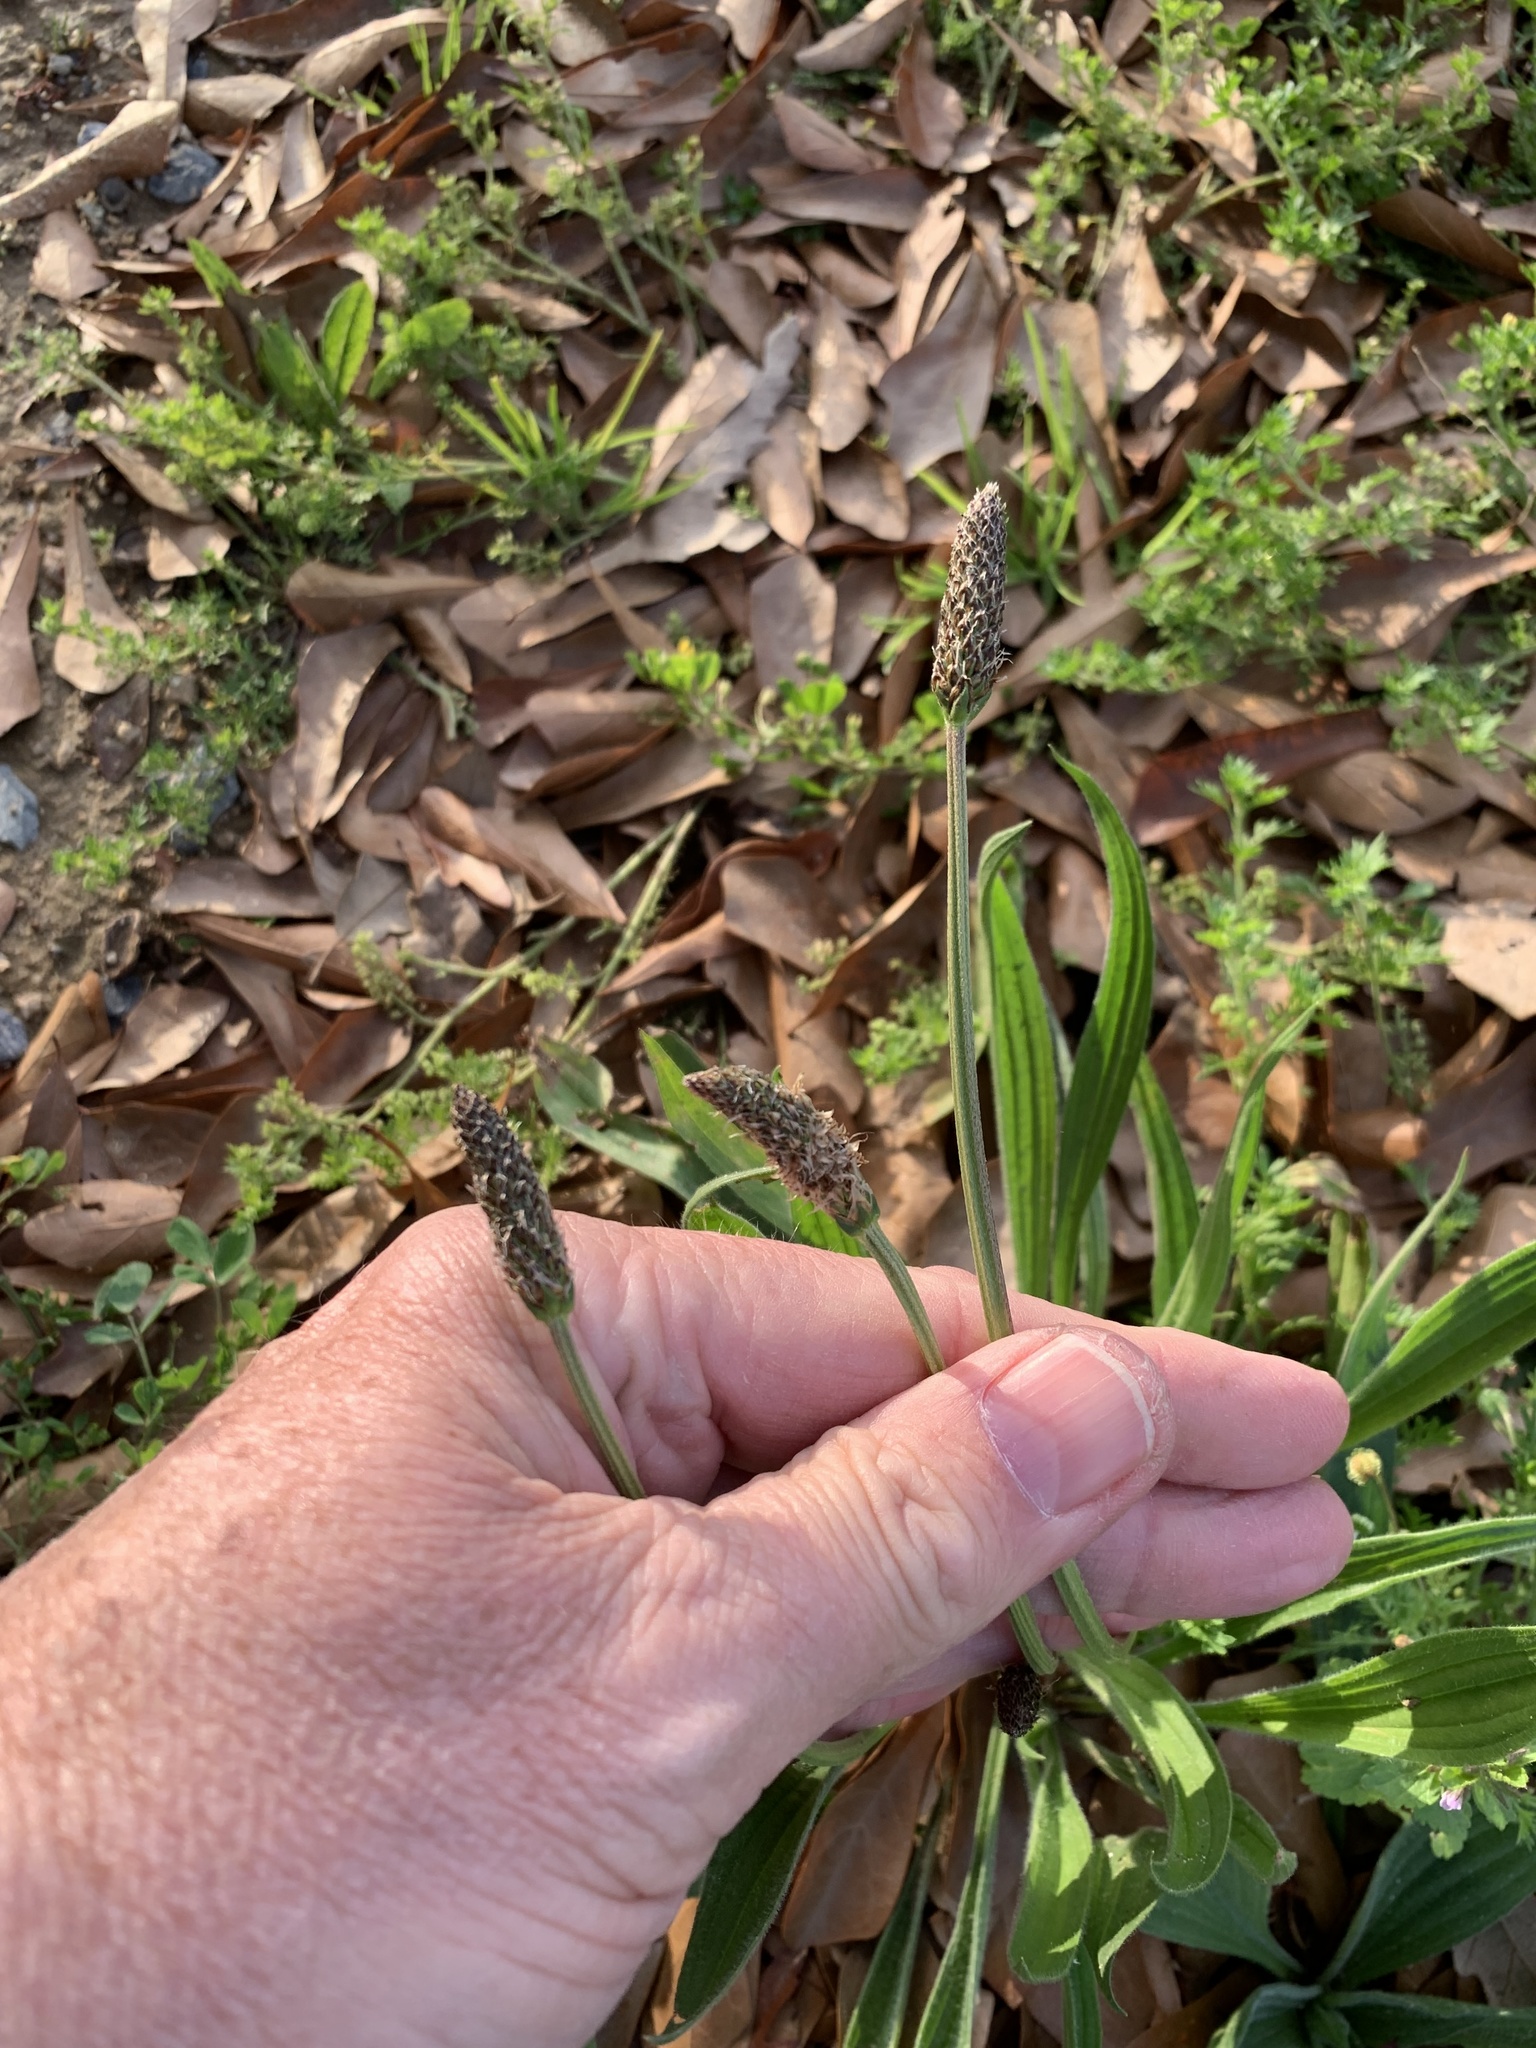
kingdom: Plantae
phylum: Tracheophyta
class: Magnoliopsida
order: Lamiales
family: Plantaginaceae
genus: Plantago
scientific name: Plantago lanceolata
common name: Ribwort plantain
